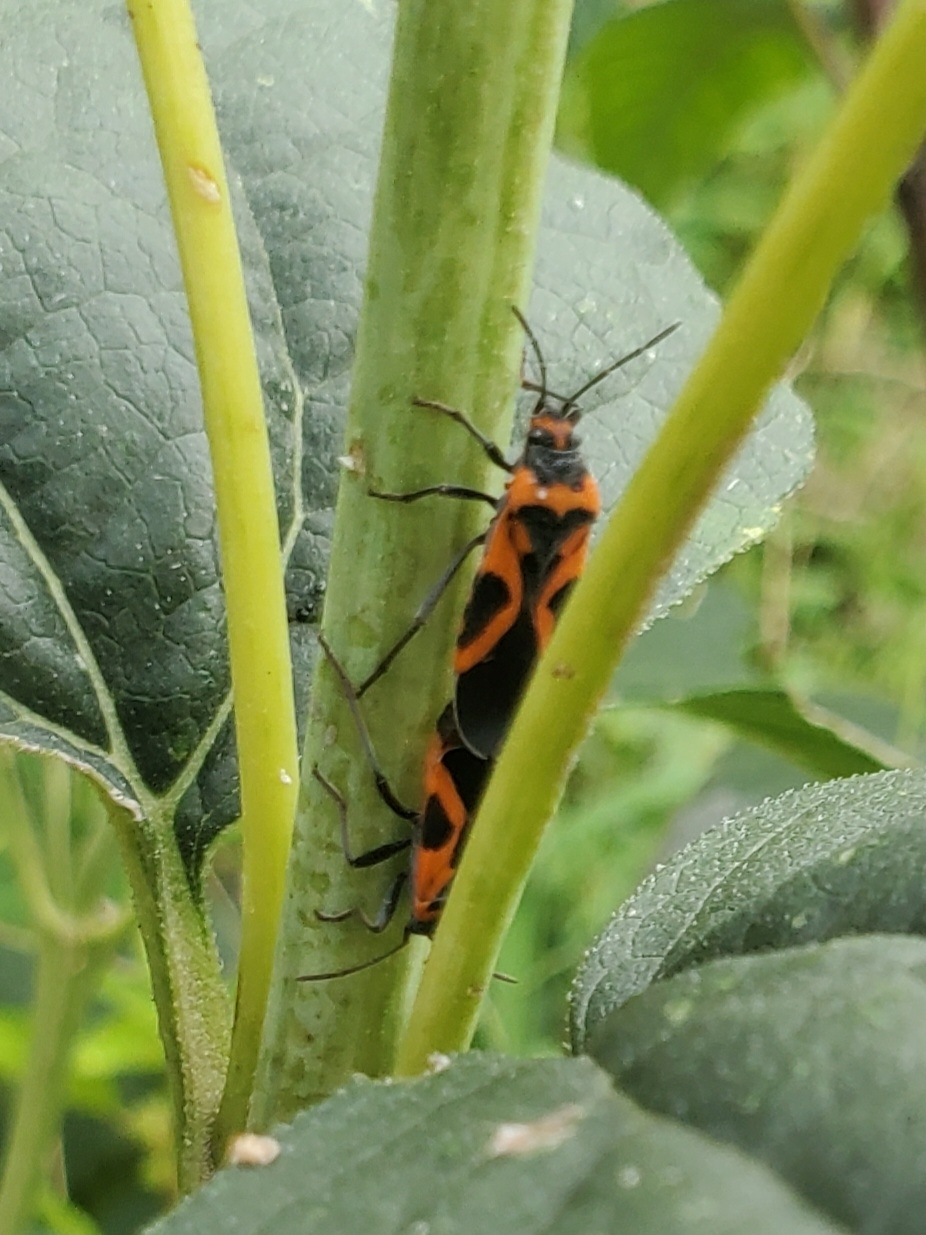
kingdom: Animalia
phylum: Arthropoda
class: Insecta
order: Hemiptera
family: Lygaeidae
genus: Lygaeus
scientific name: Lygaeus turcicus
